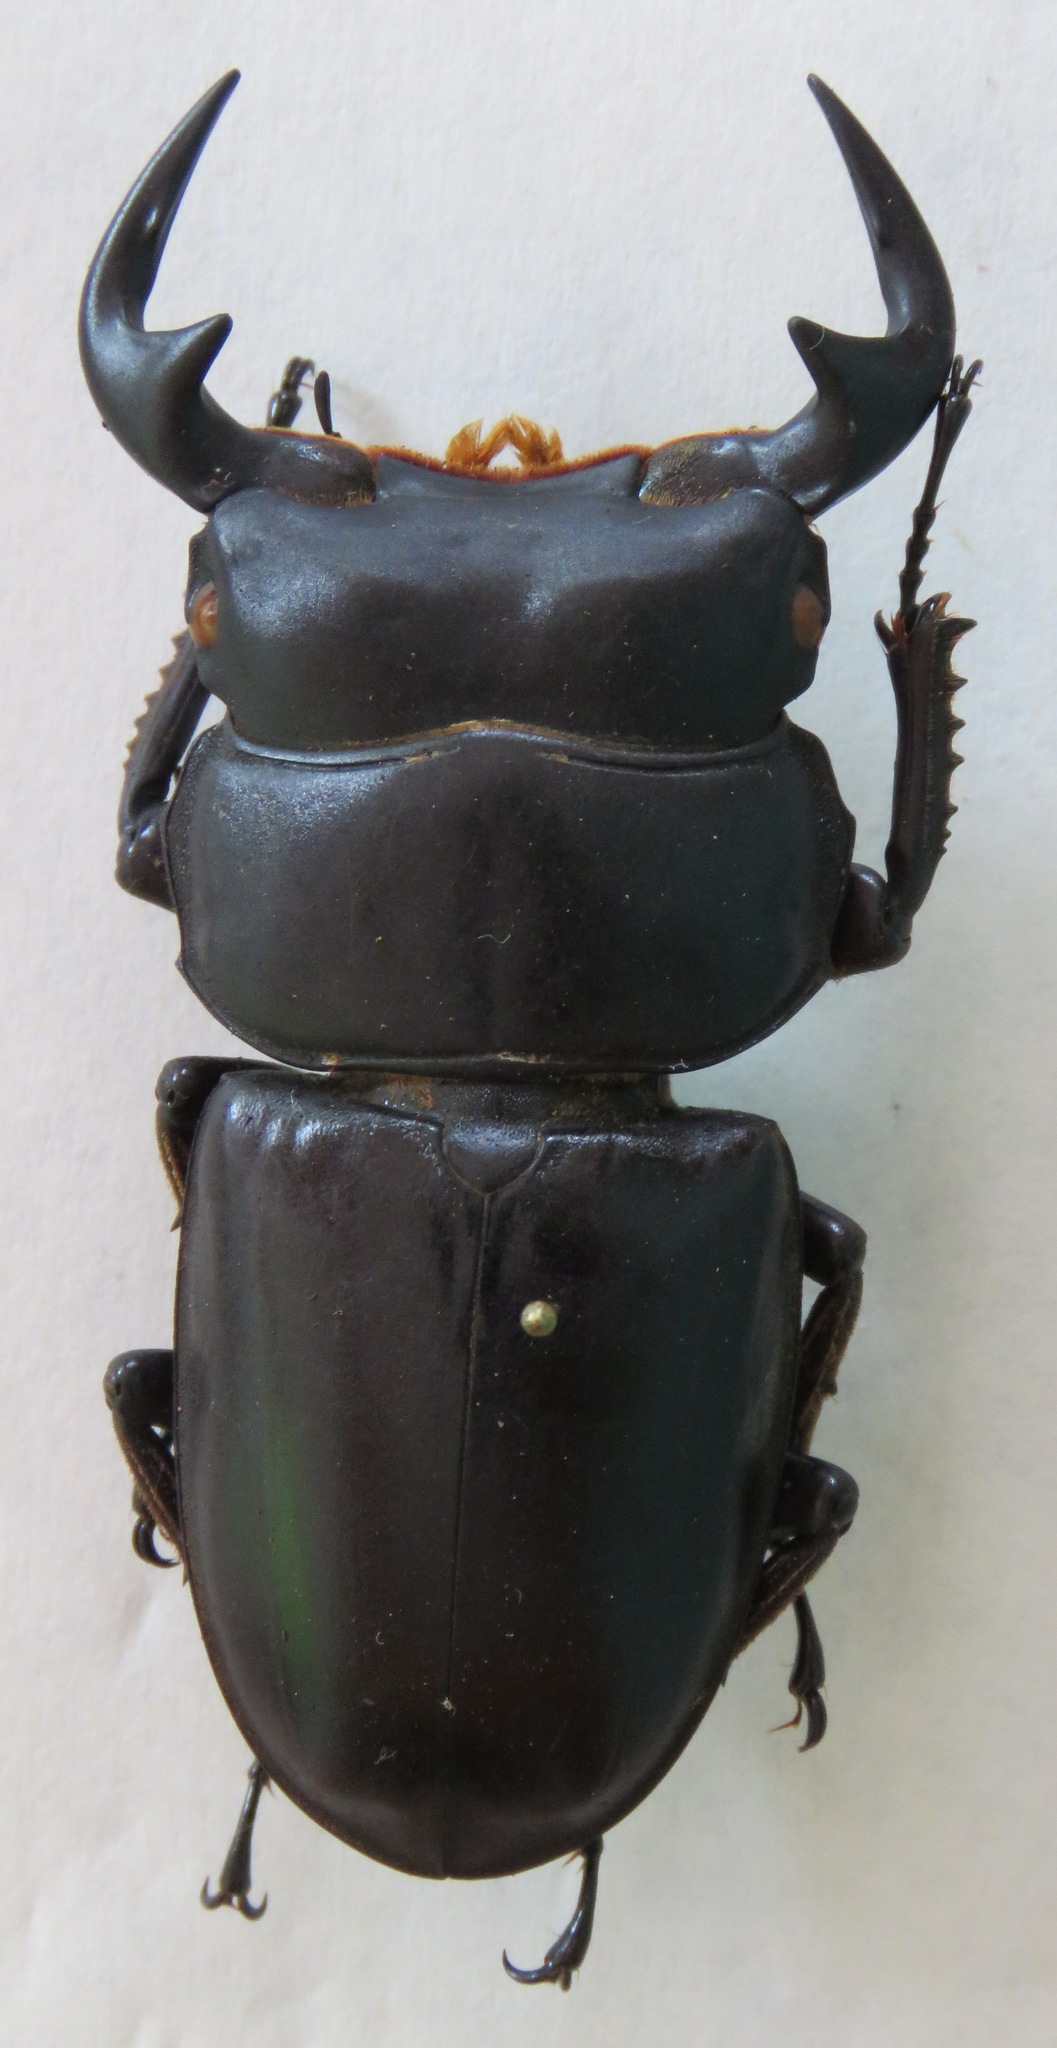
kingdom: Animalia
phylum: Arthropoda
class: Insecta
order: Coleoptera
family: Lucanidae
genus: Dorcus
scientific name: Dorcus antaeus
